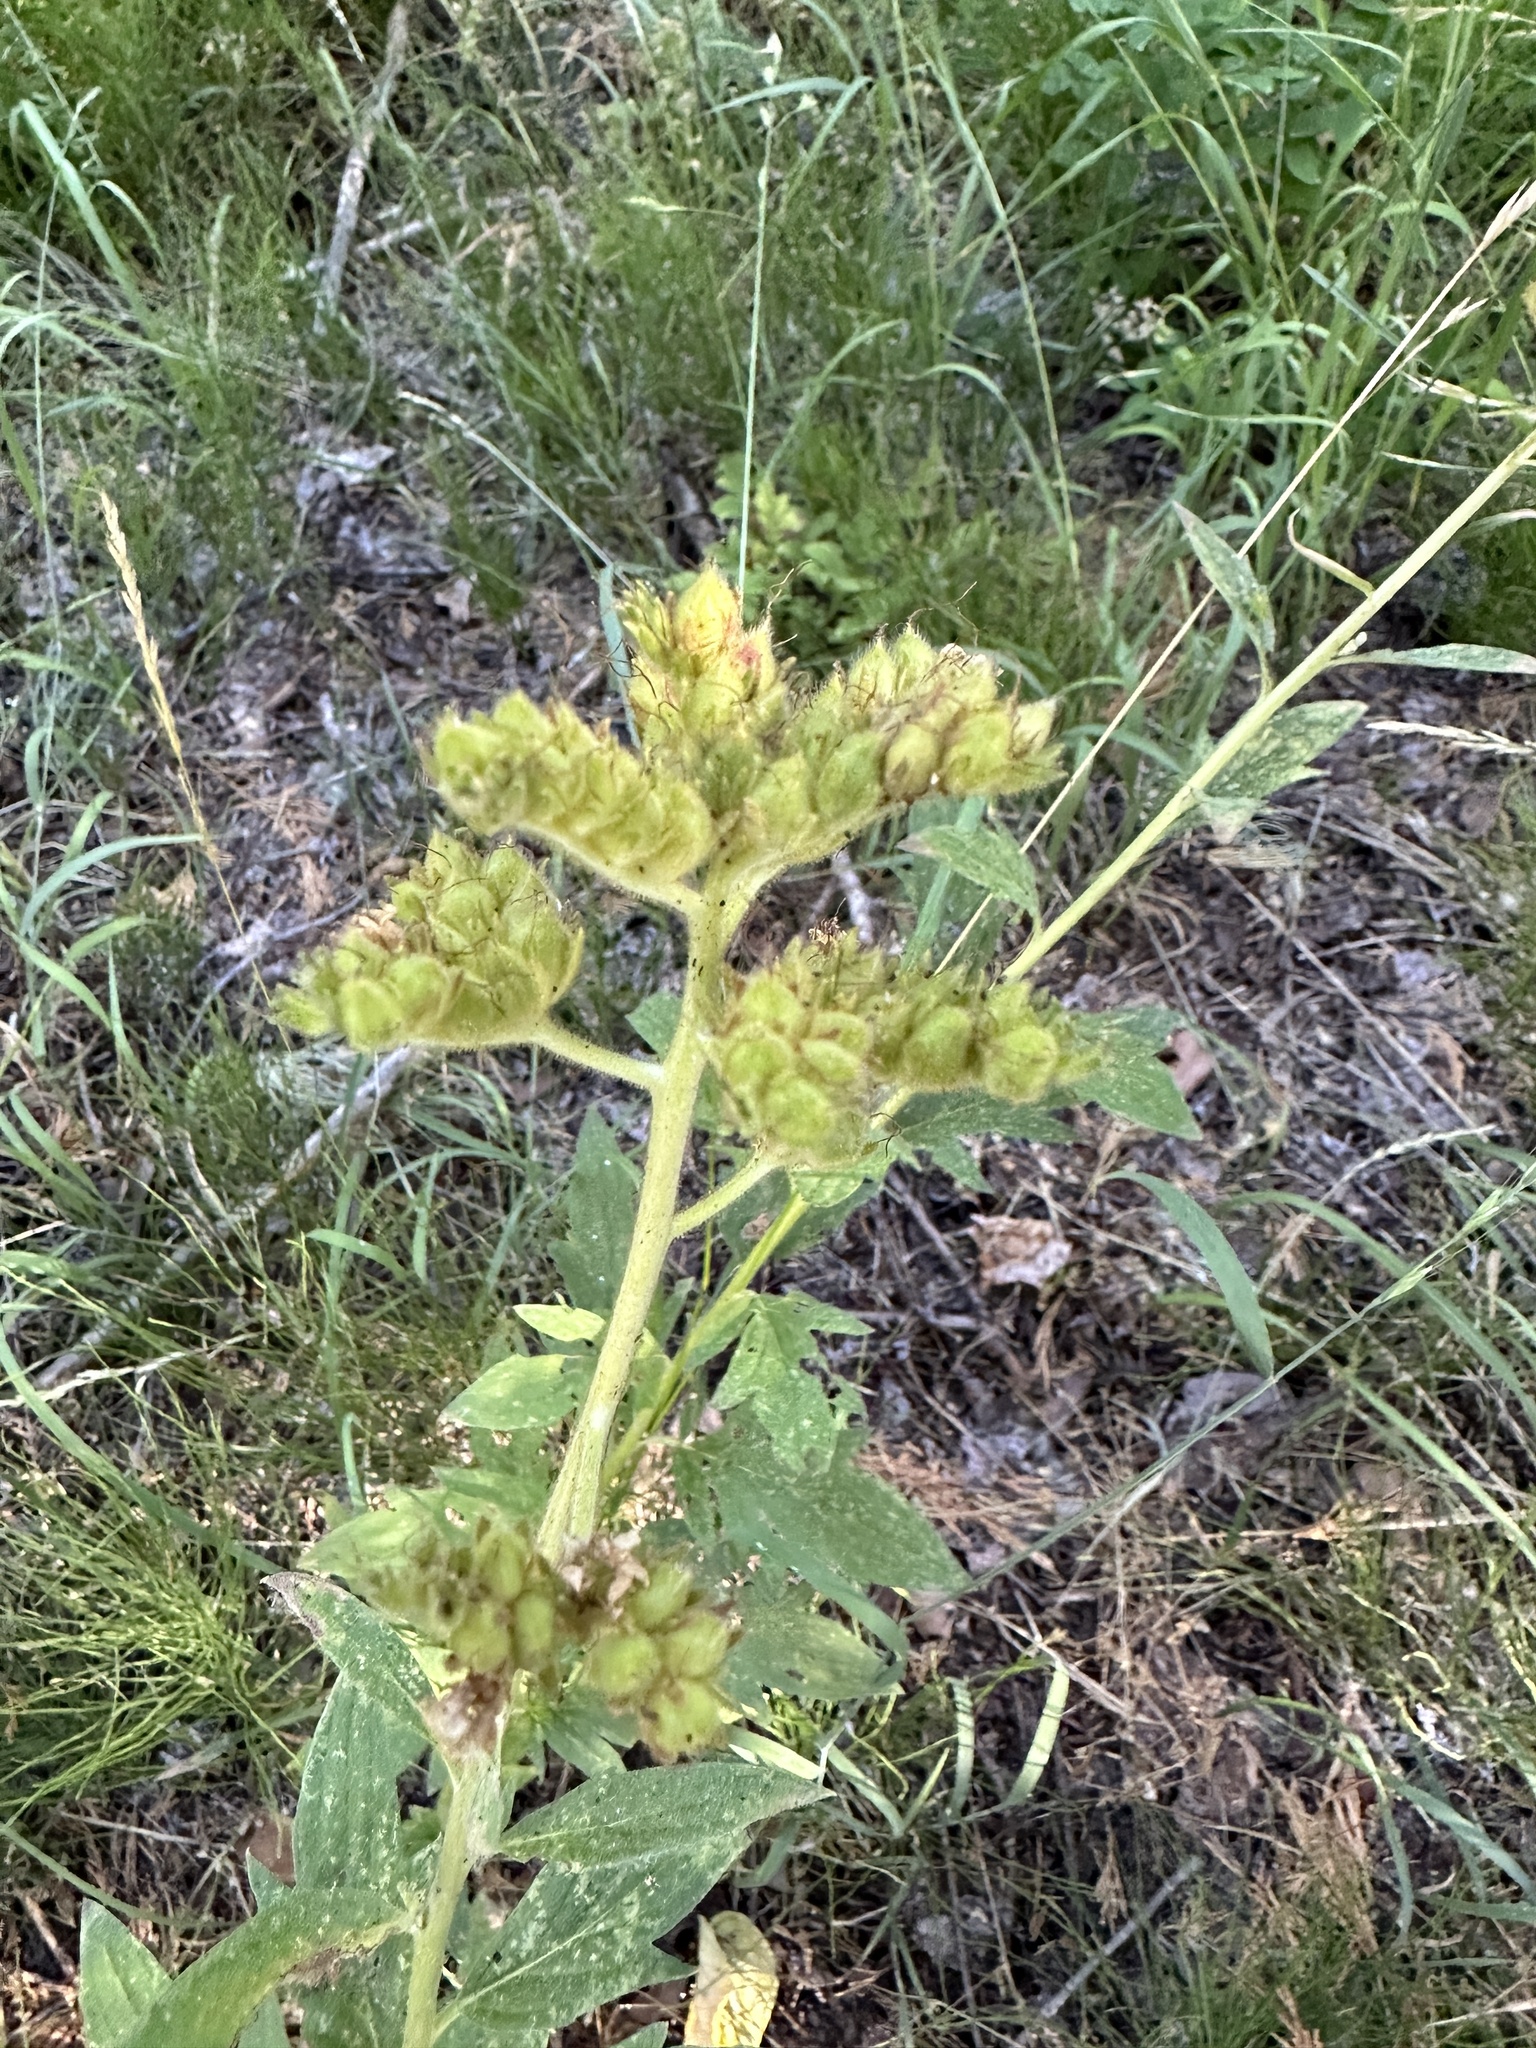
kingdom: Plantae
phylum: Tracheophyta
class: Magnoliopsida
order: Boraginales
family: Hydrophyllaceae
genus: Phacelia
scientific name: Phacelia procera
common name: Tall phacelia
